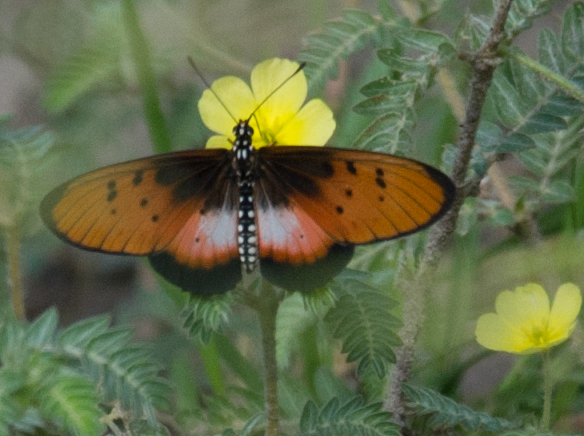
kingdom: Animalia
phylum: Arthropoda
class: Insecta
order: Lepidoptera
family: Nymphalidae
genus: Stephenia
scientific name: Stephenia
